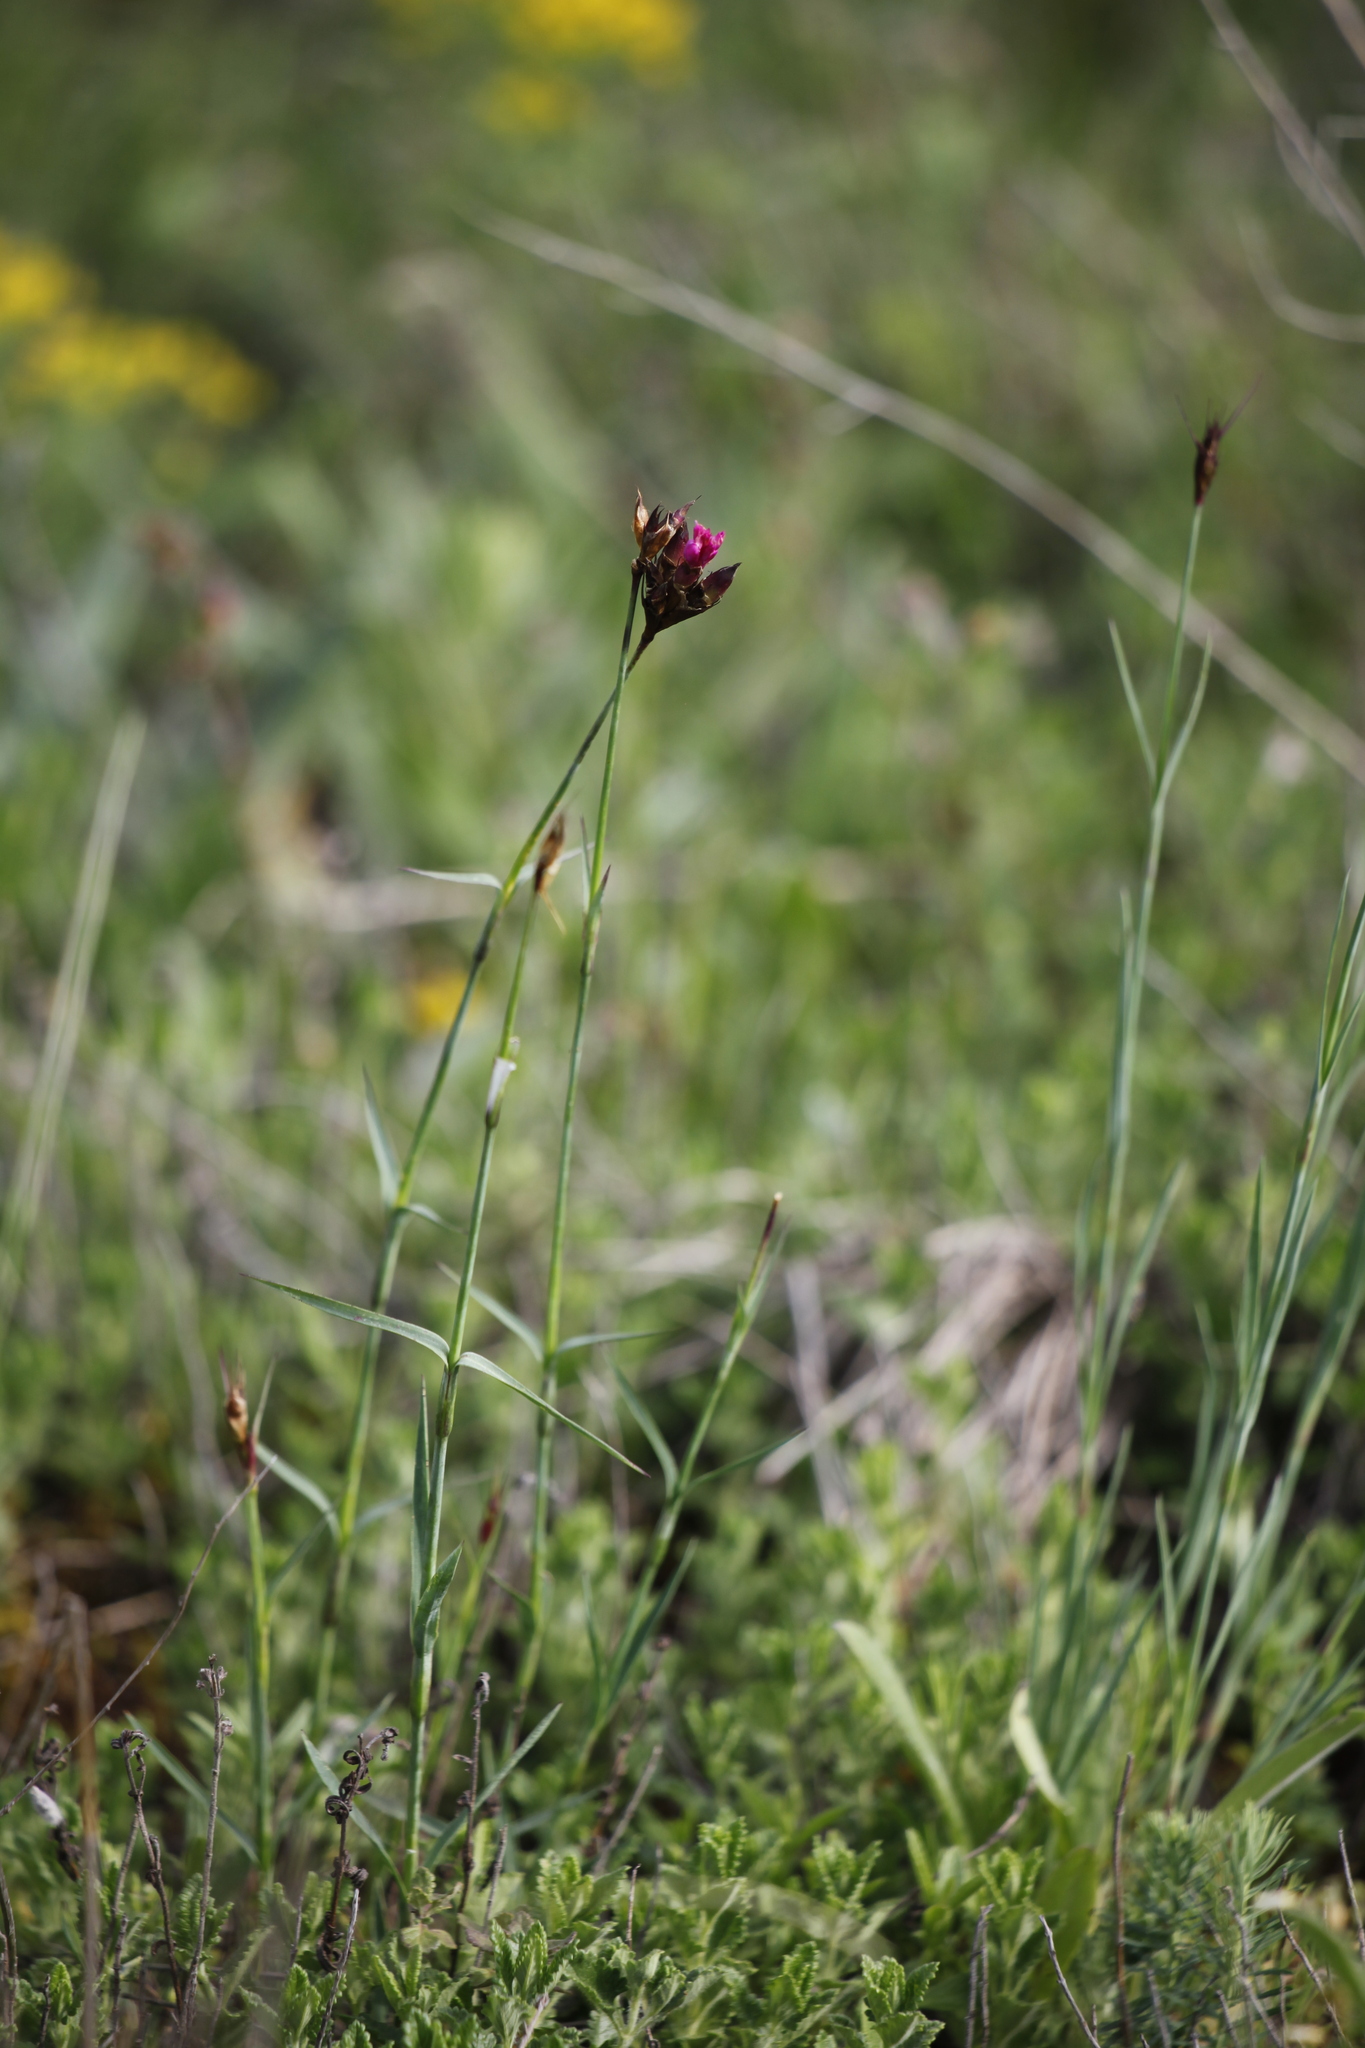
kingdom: Plantae
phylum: Tracheophyta
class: Magnoliopsida
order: Caryophyllales
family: Caryophyllaceae
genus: Dianthus
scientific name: Dianthus carthusianorum
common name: Carthusian pink
